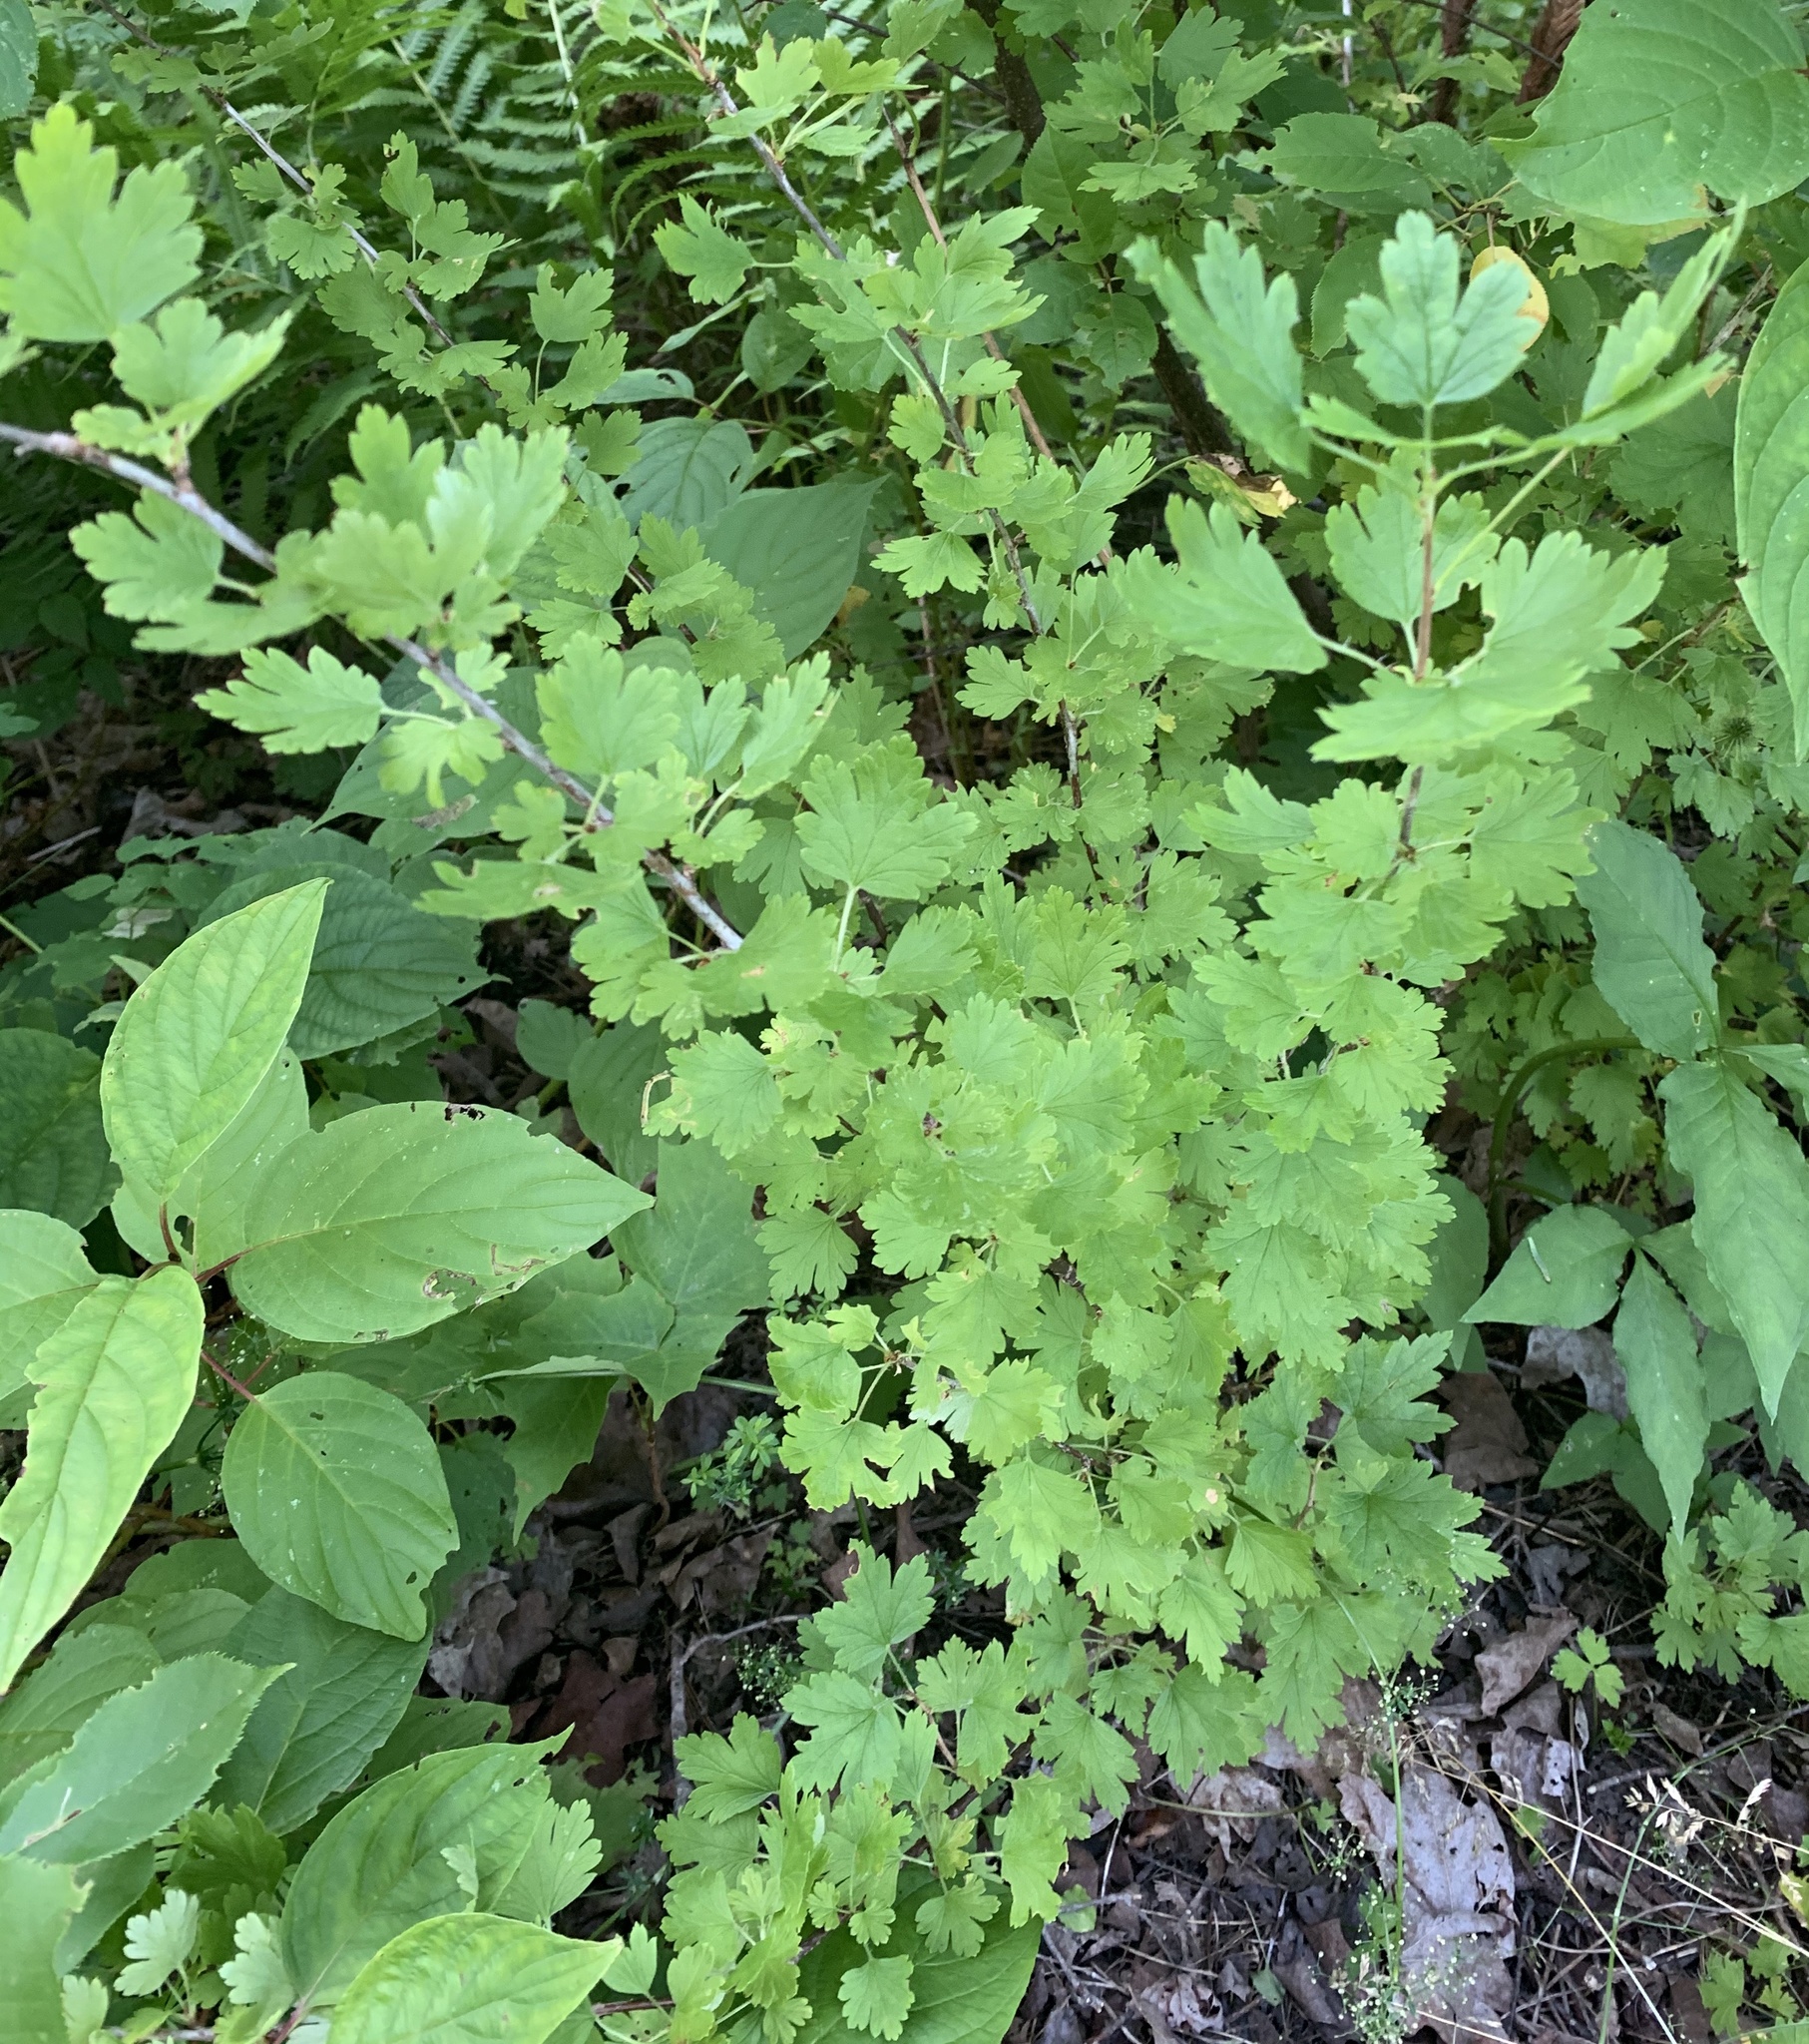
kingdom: Plantae
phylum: Tracheophyta
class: Magnoliopsida
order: Saxifragales
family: Grossulariaceae
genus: Ribes
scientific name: Ribes hirtellum
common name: Hairy gooseberry
